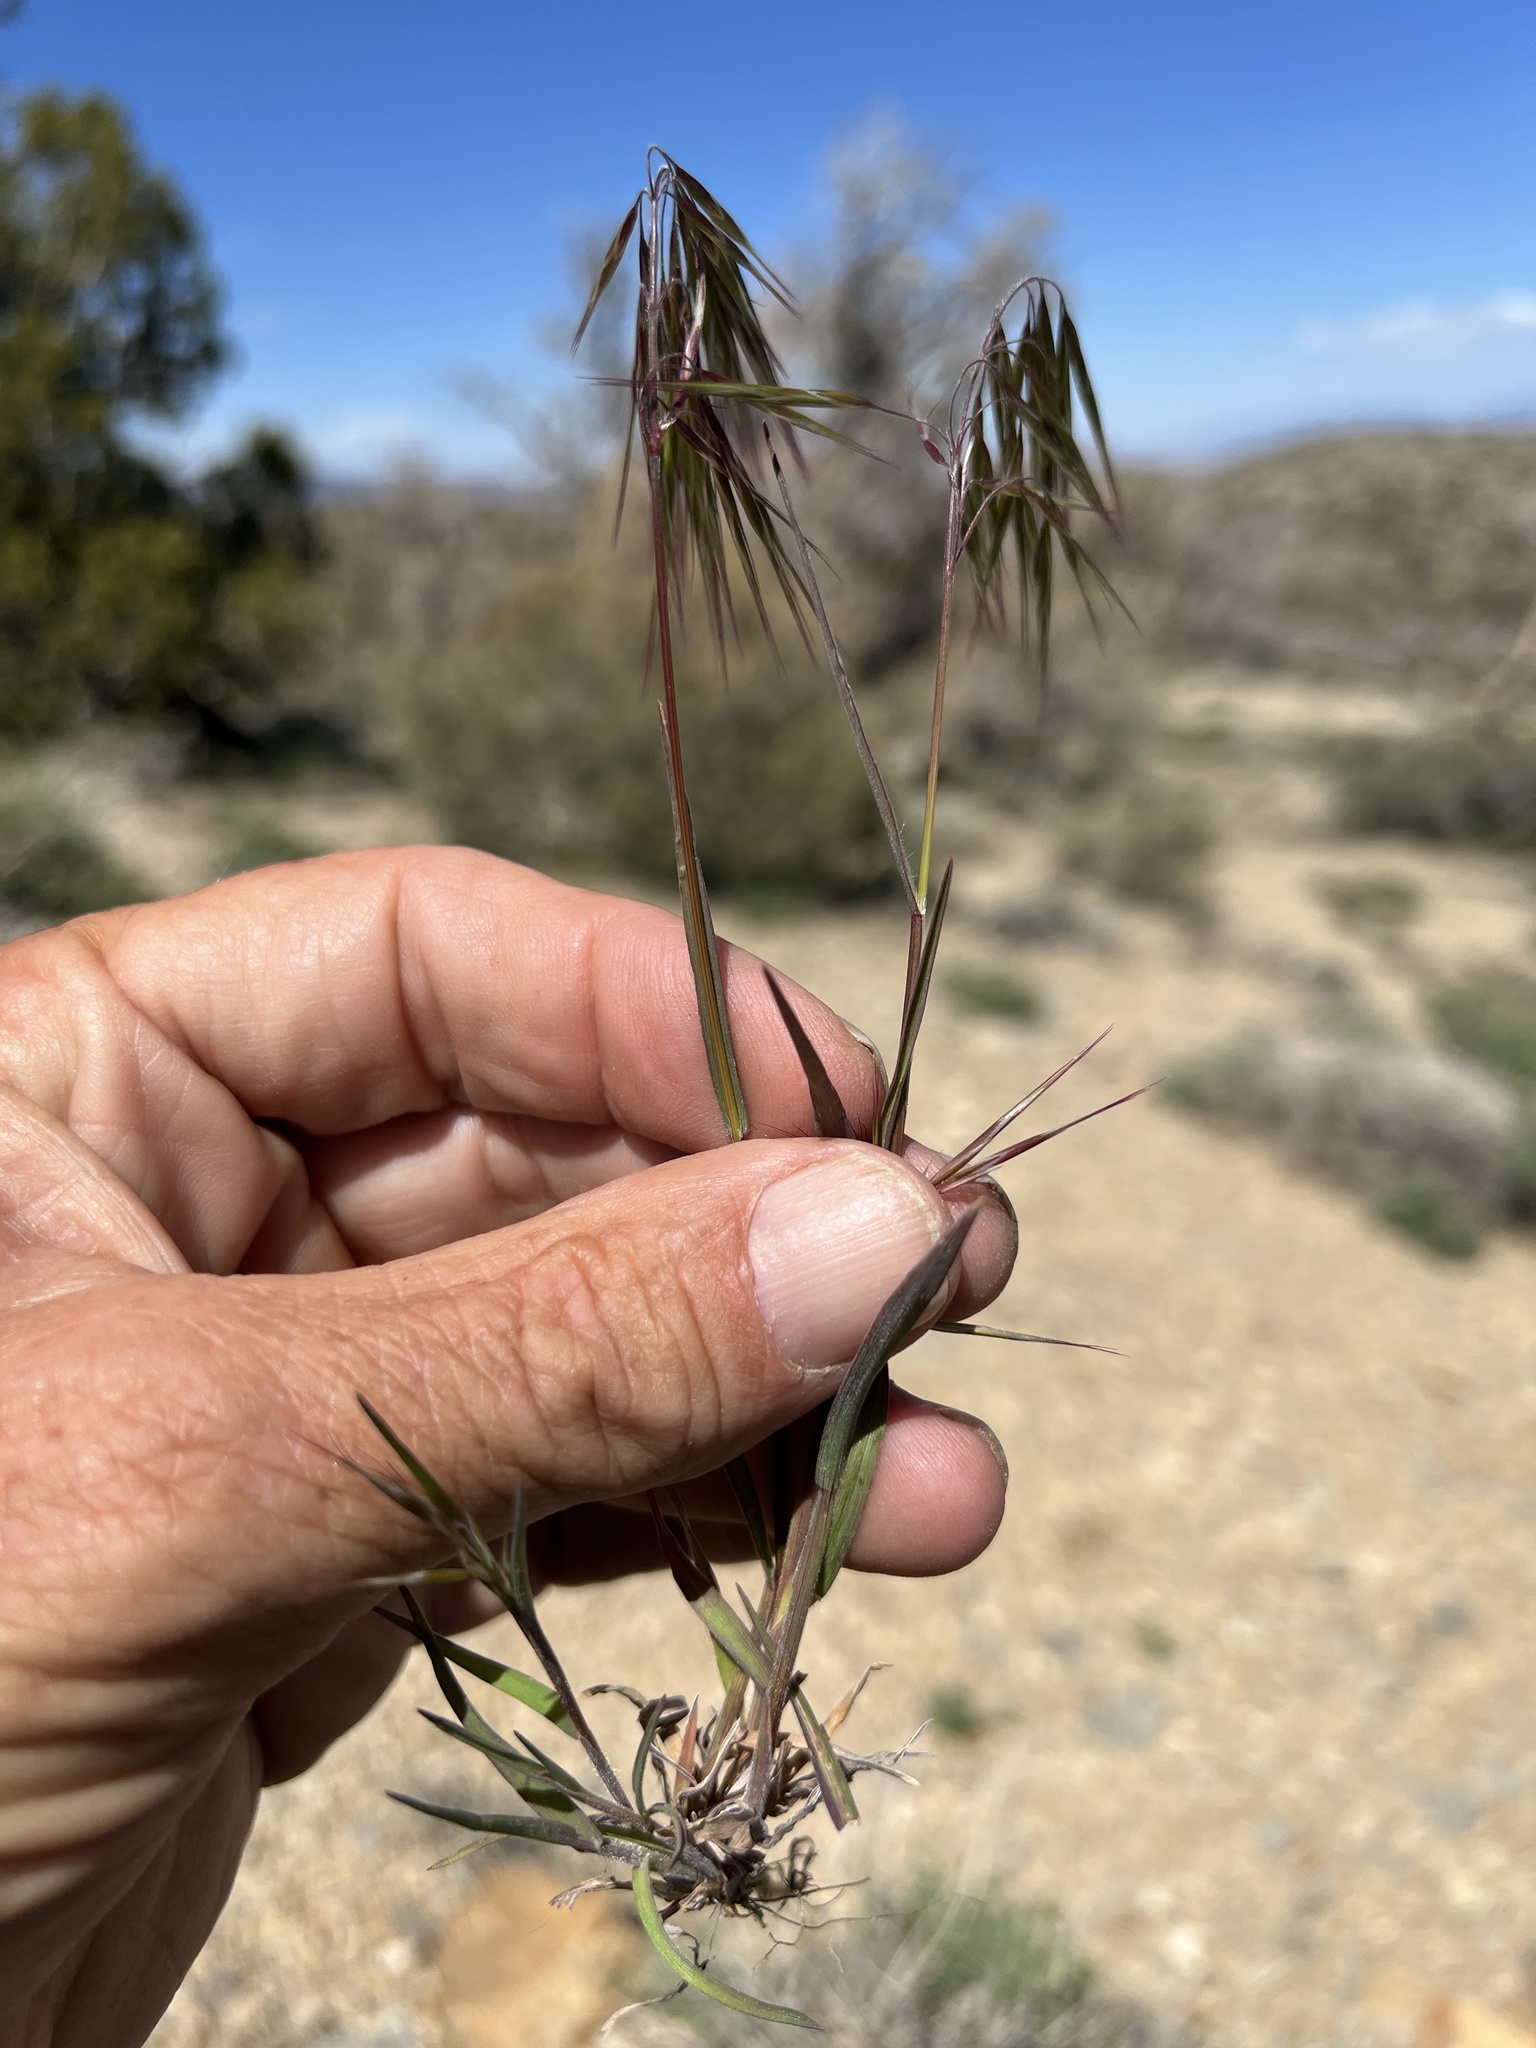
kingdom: Plantae
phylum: Tracheophyta
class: Liliopsida
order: Poales
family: Poaceae
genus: Bromus
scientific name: Bromus tectorum
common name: Cheatgrass
